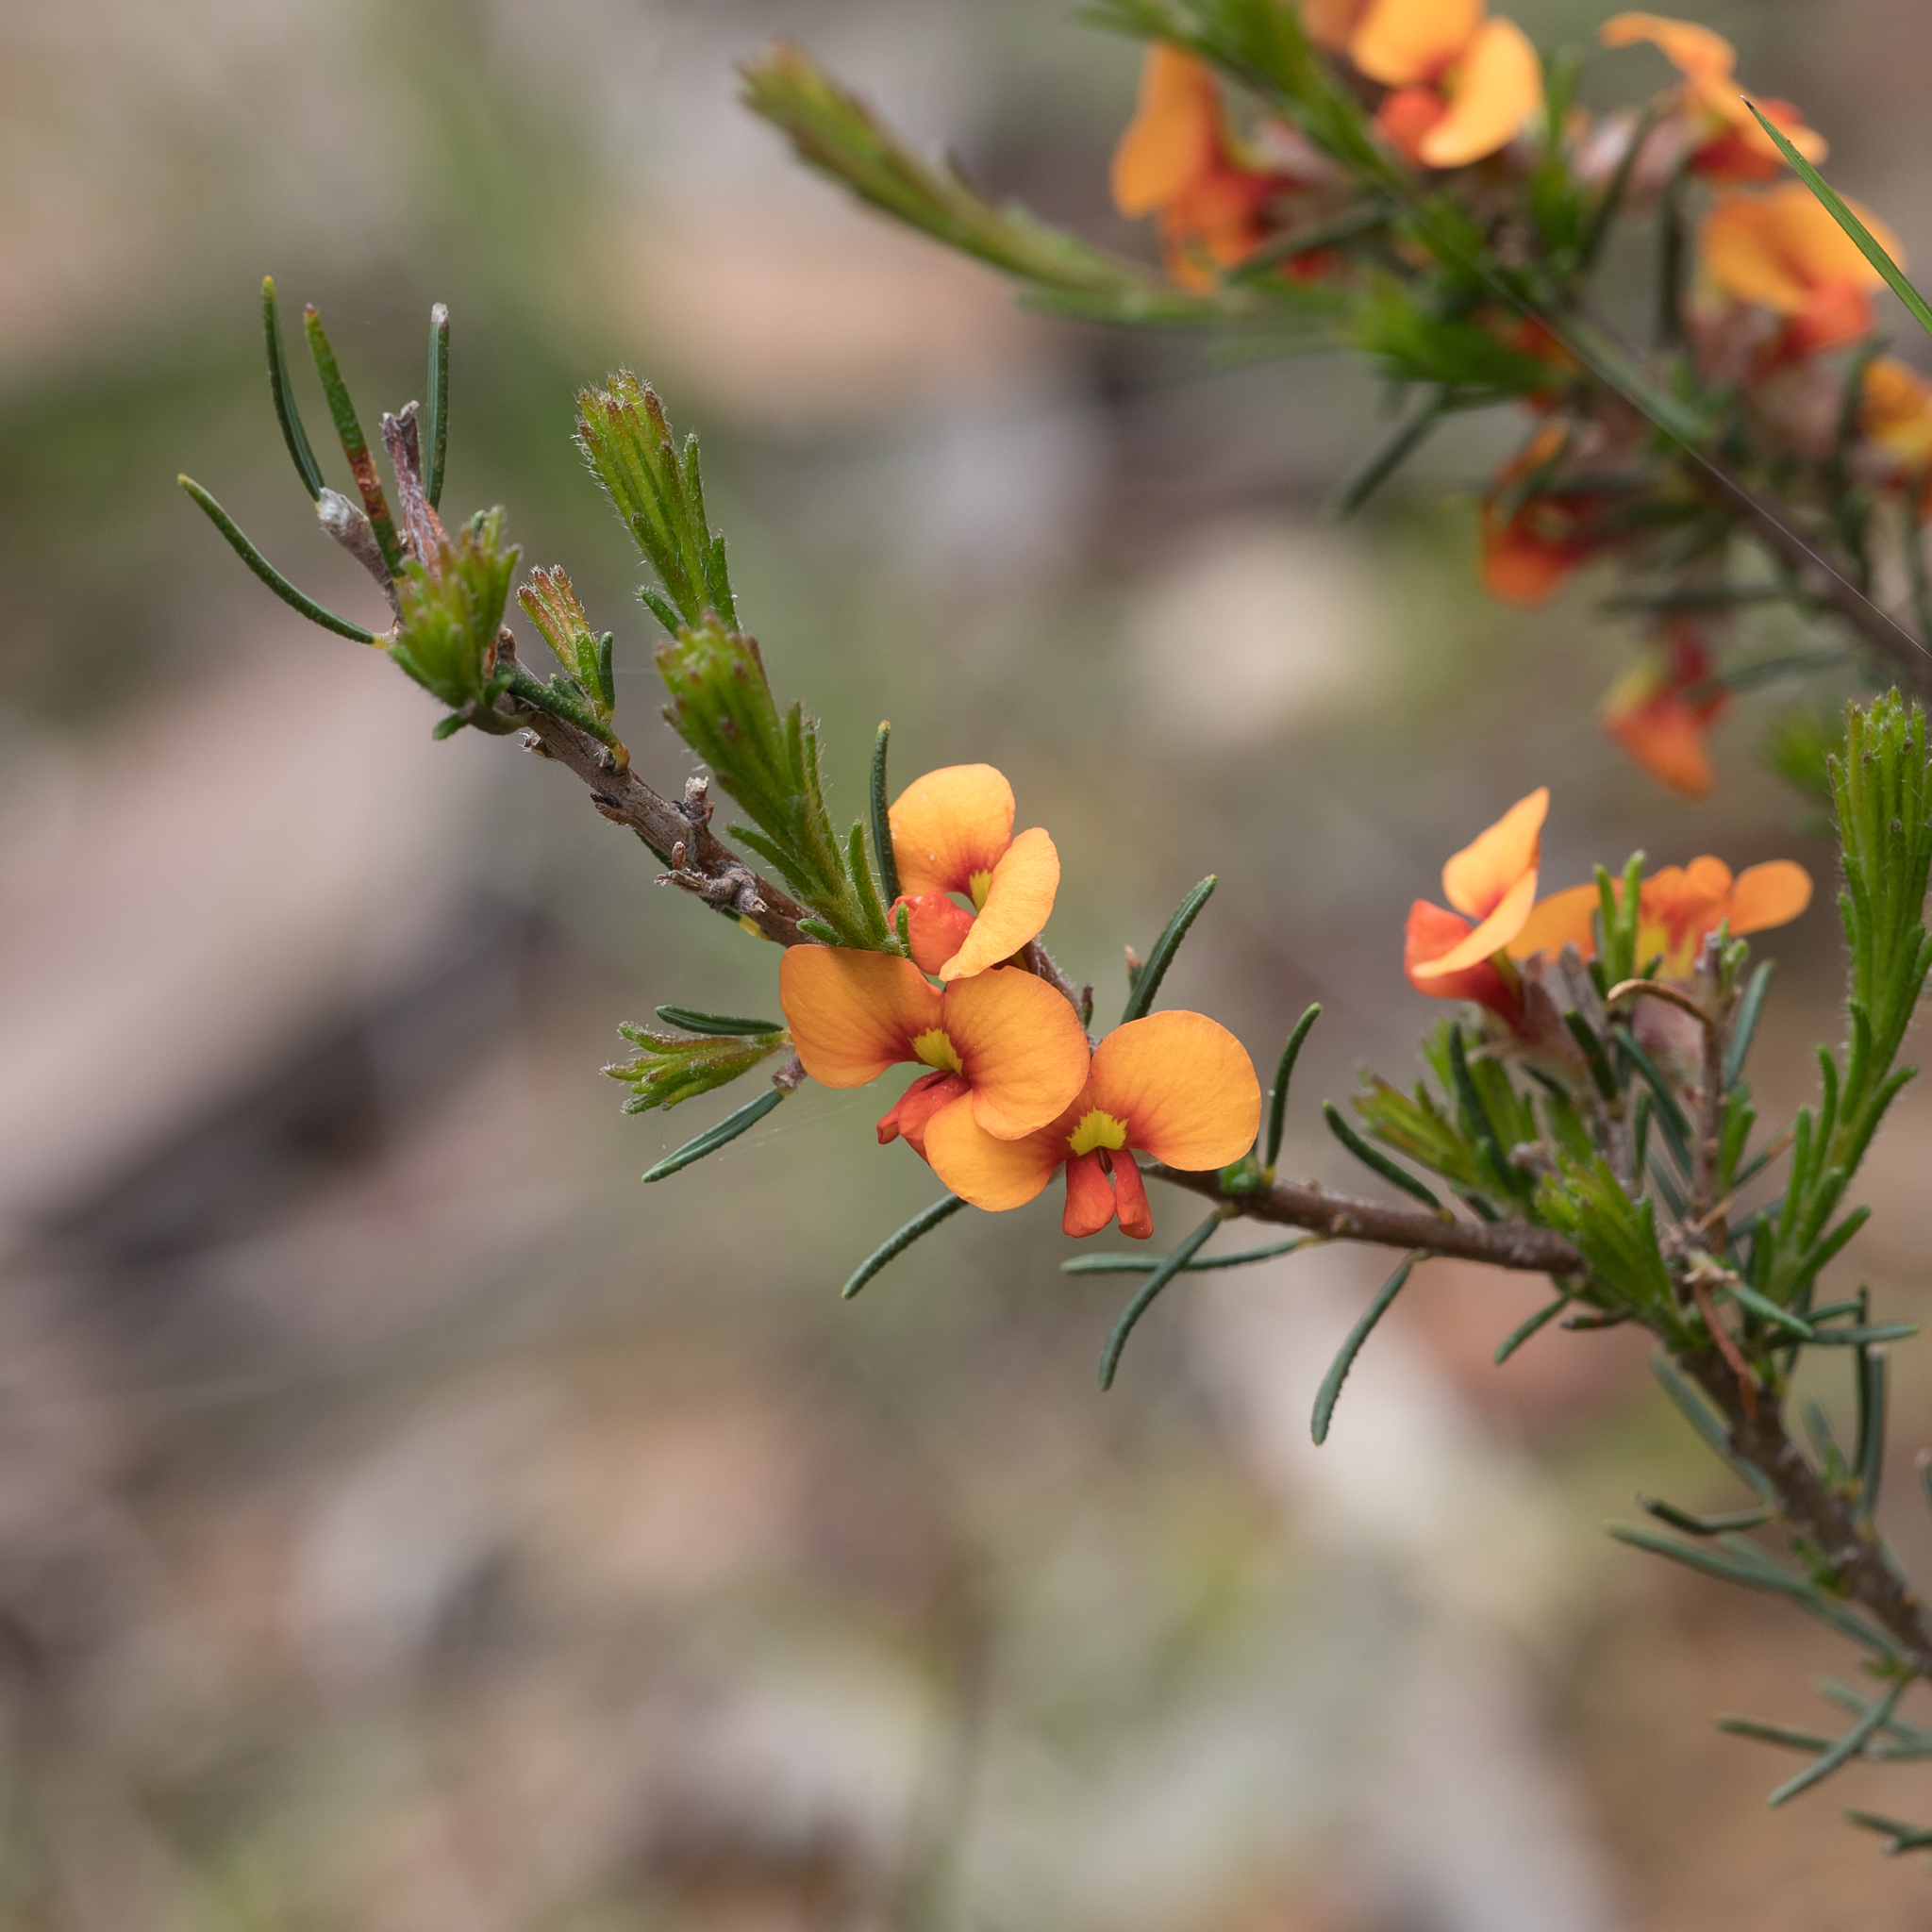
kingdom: Plantae
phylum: Tracheophyta
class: Magnoliopsida
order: Fabales
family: Fabaceae
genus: Dillwynia
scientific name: Dillwynia sericea
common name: Showy parrot-pea
